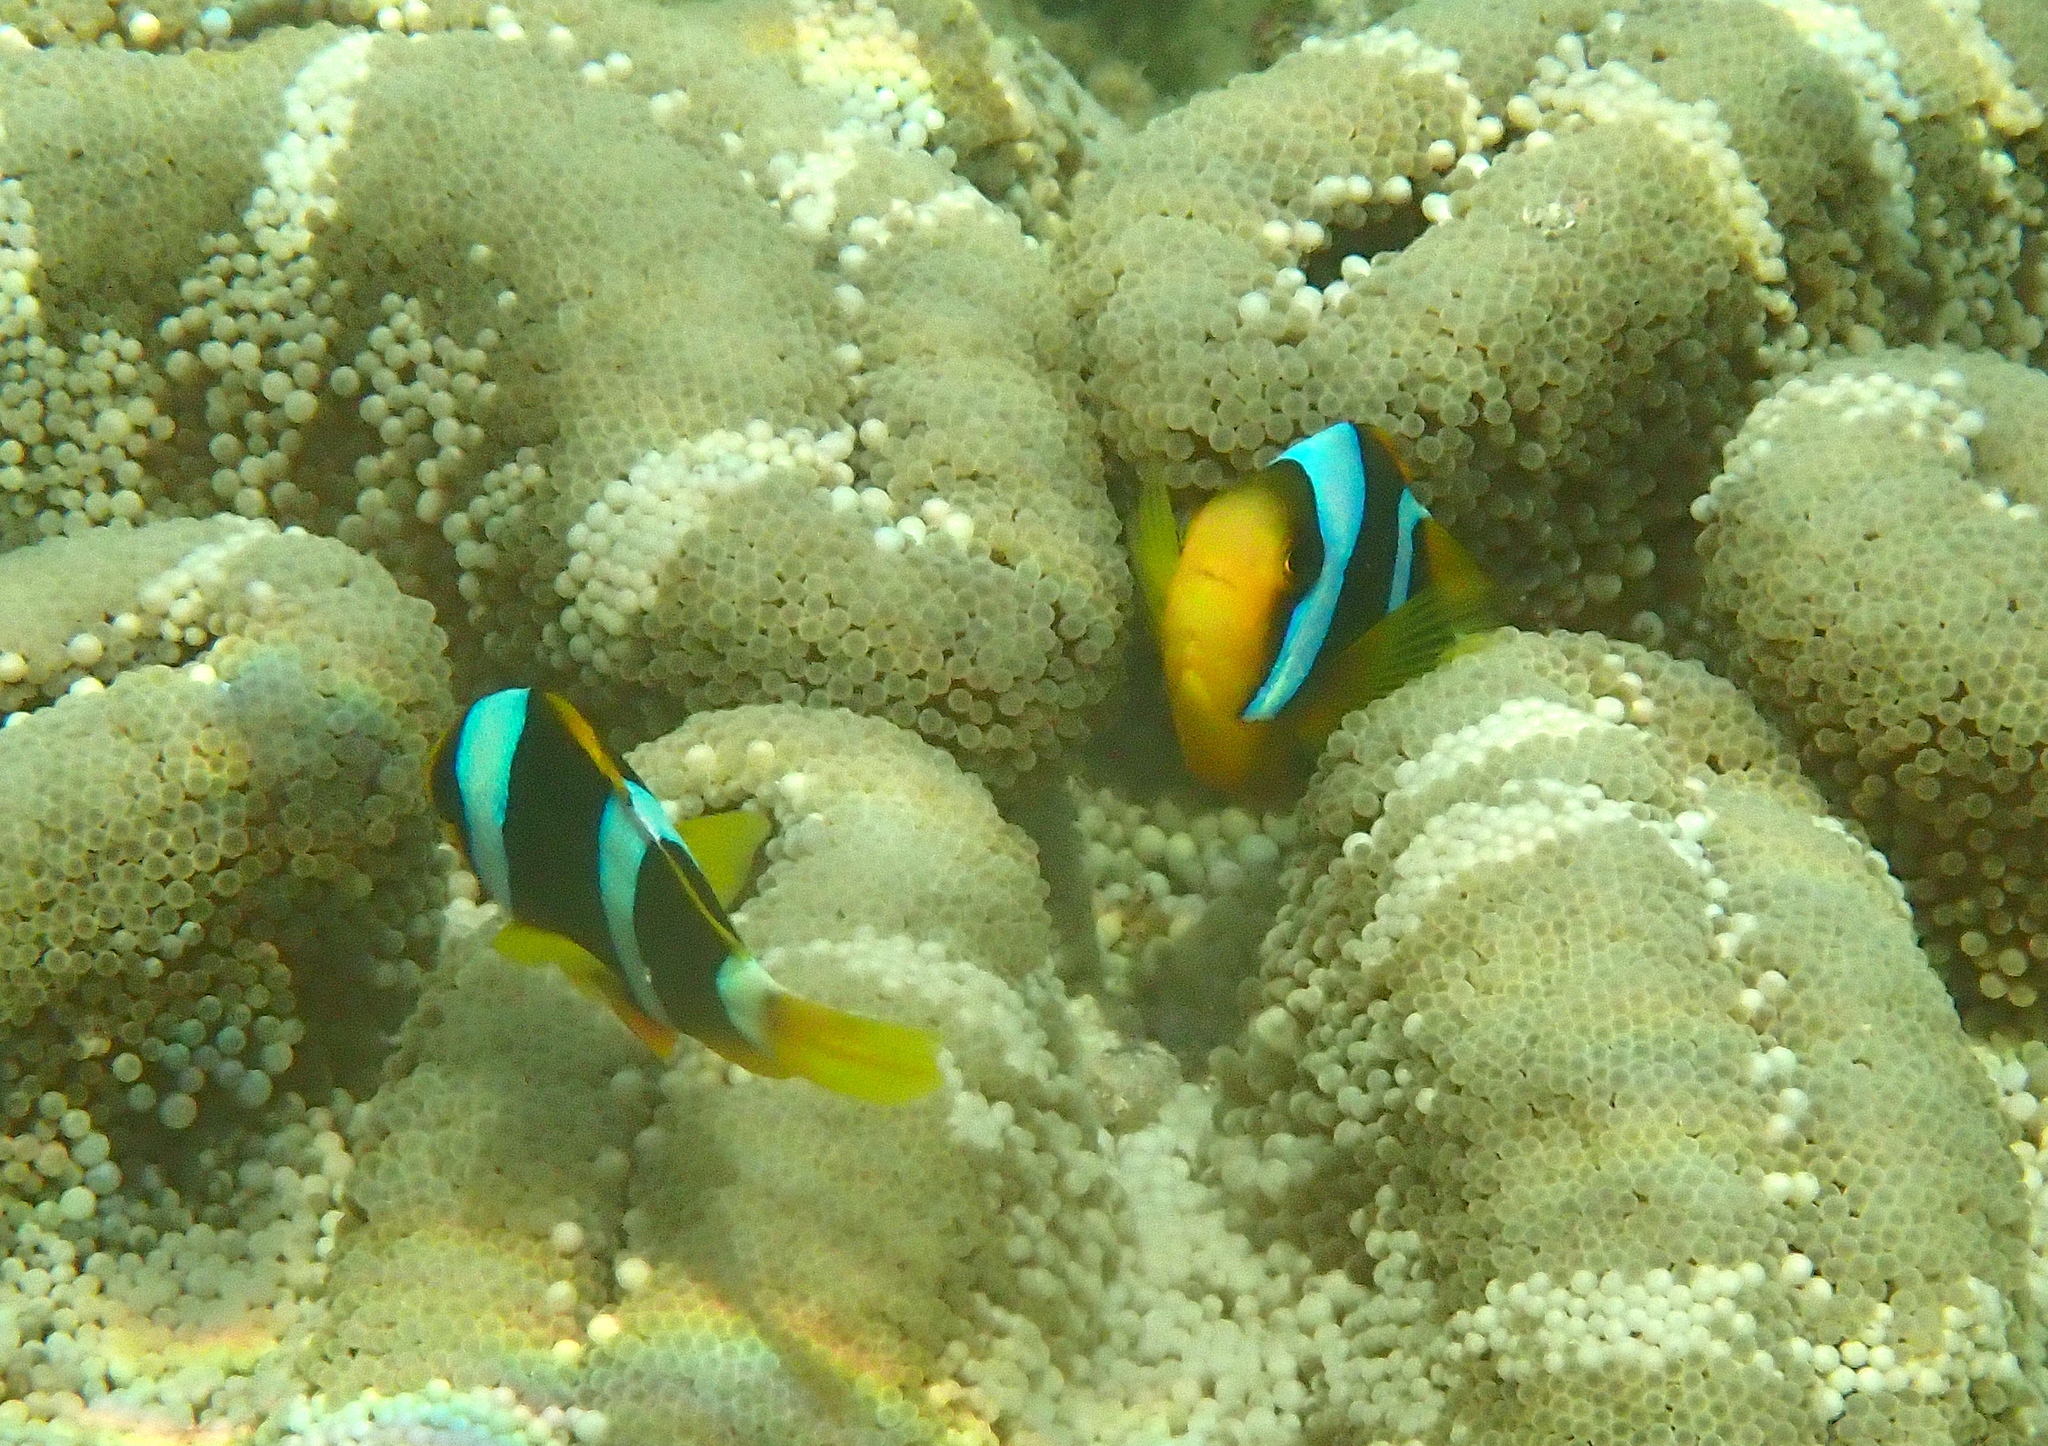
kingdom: Animalia
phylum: Chordata
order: Perciformes
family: Pomacentridae
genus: Amphiprion
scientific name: Amphiprion chrysopterus
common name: Orange-fin anemonefish
